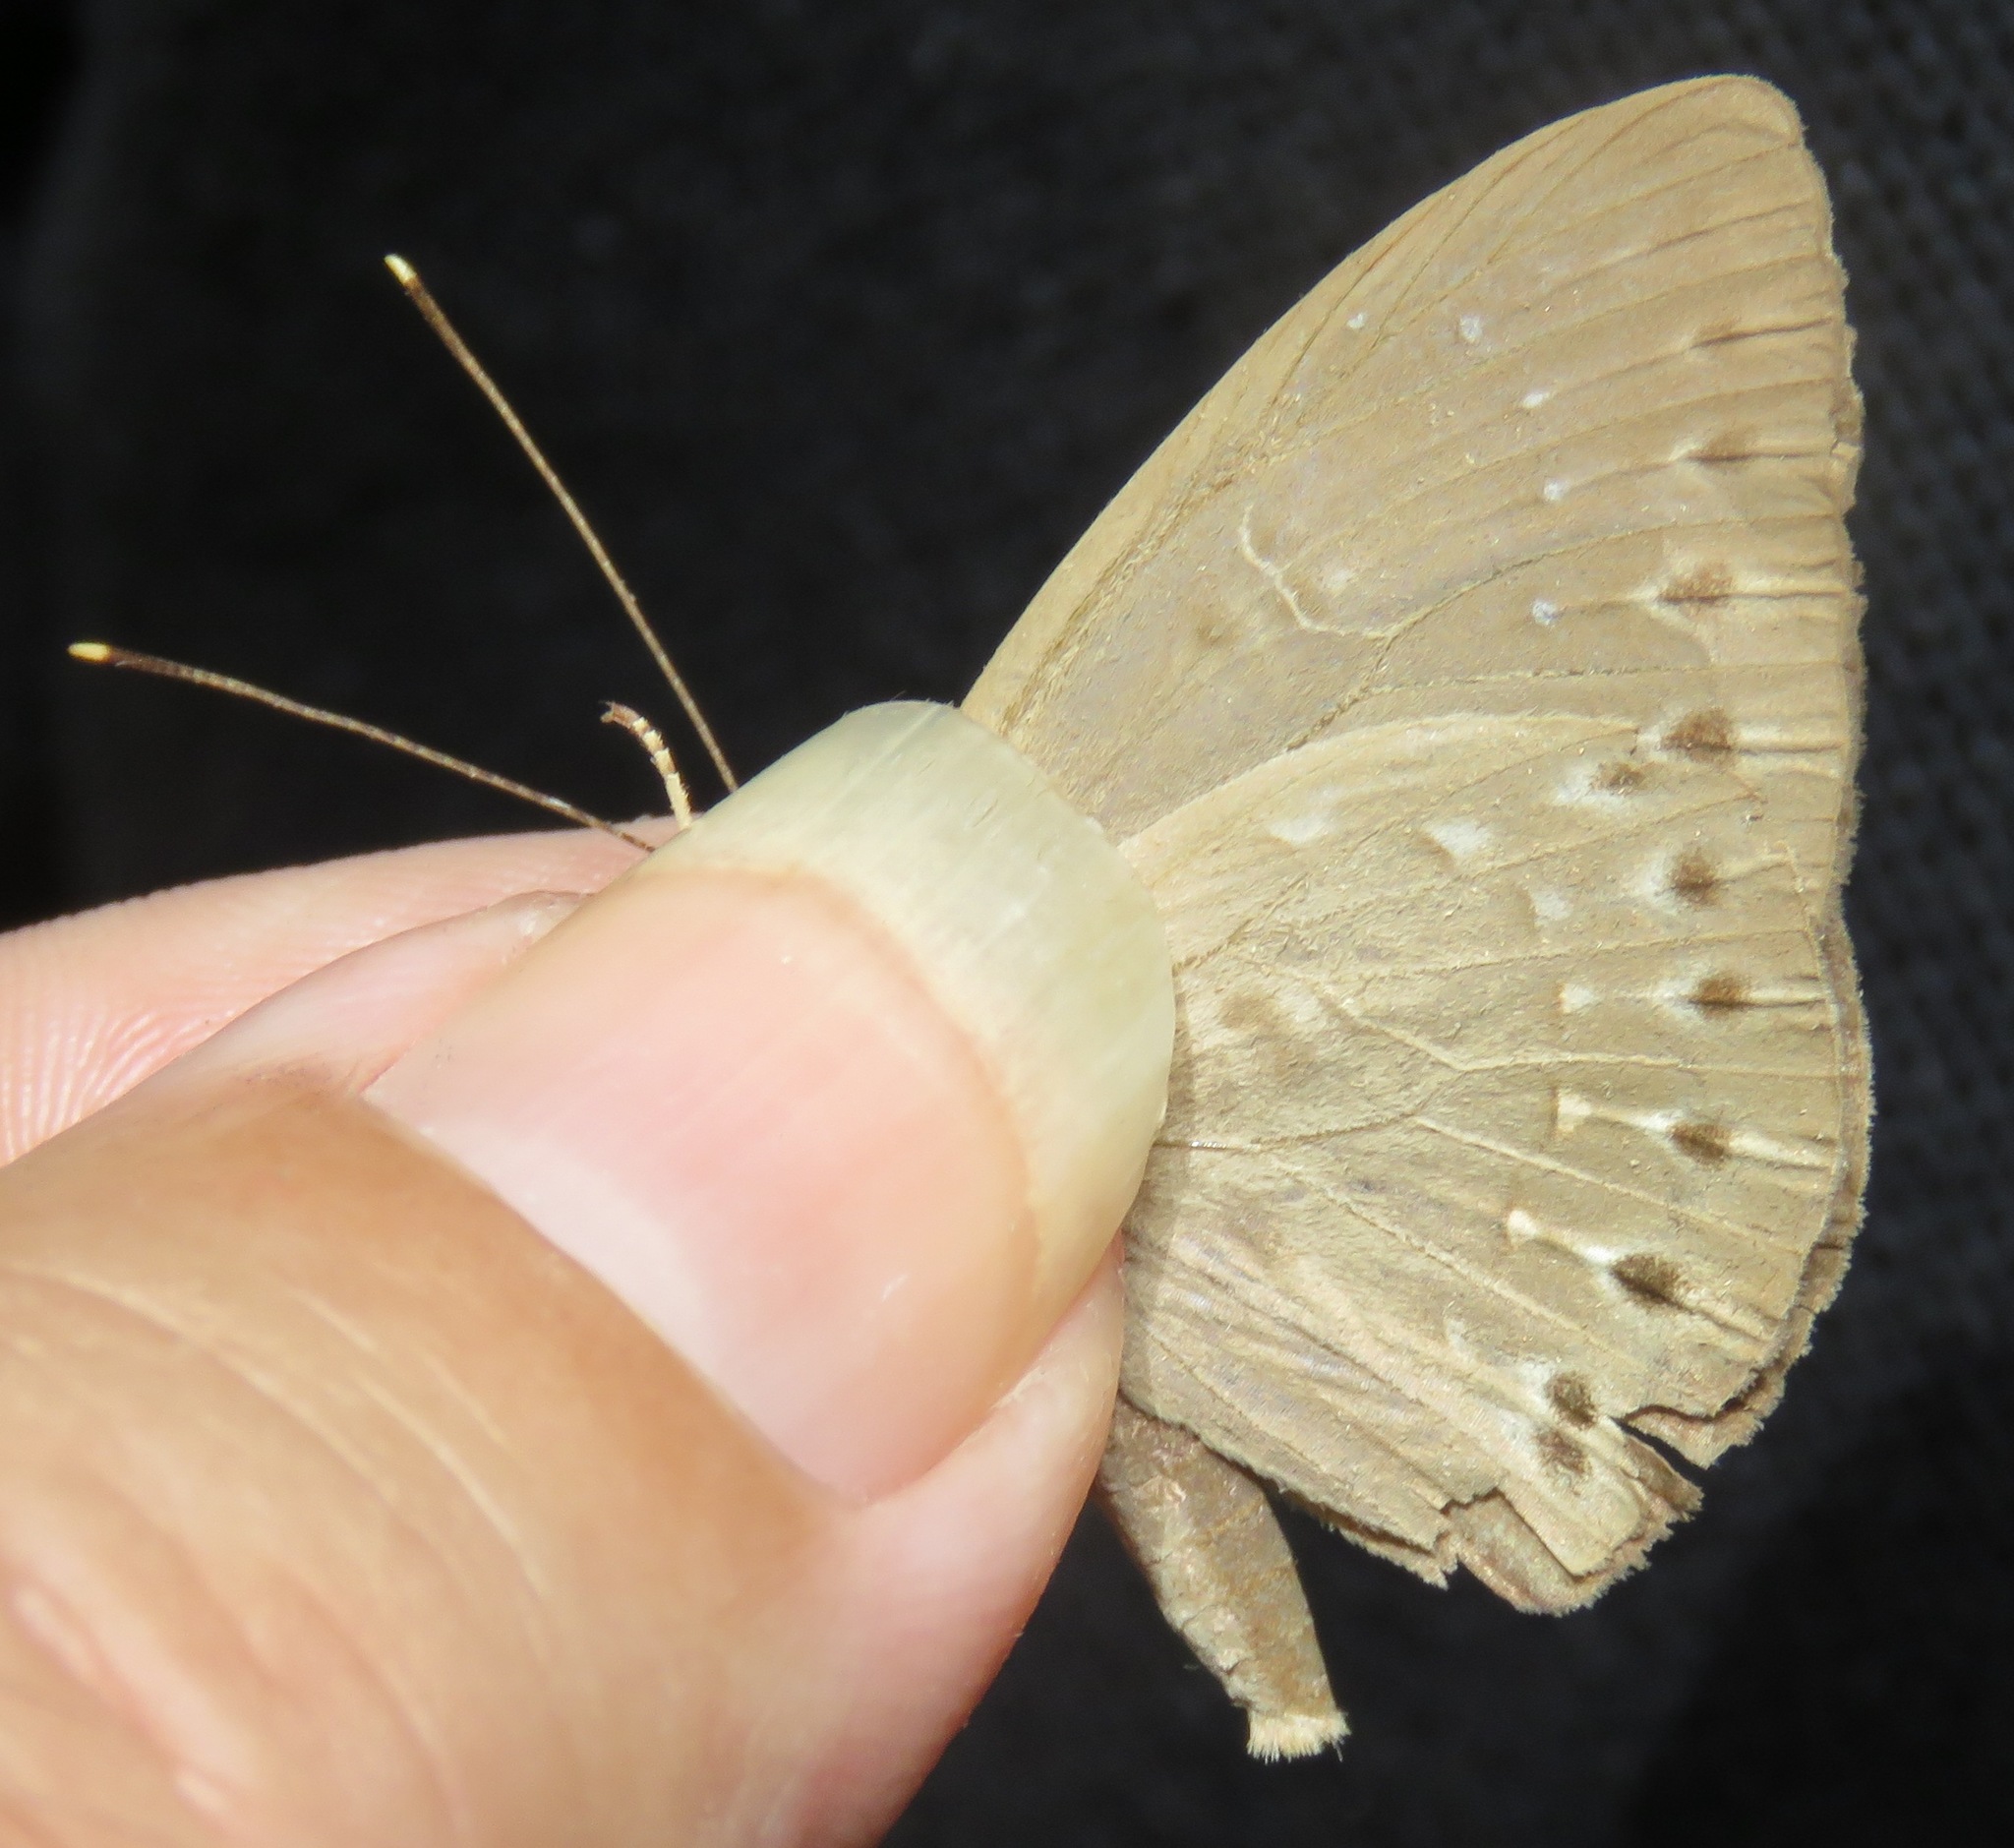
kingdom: Animalia
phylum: Cnidaria
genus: Eurybia
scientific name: Eurybia elvina
